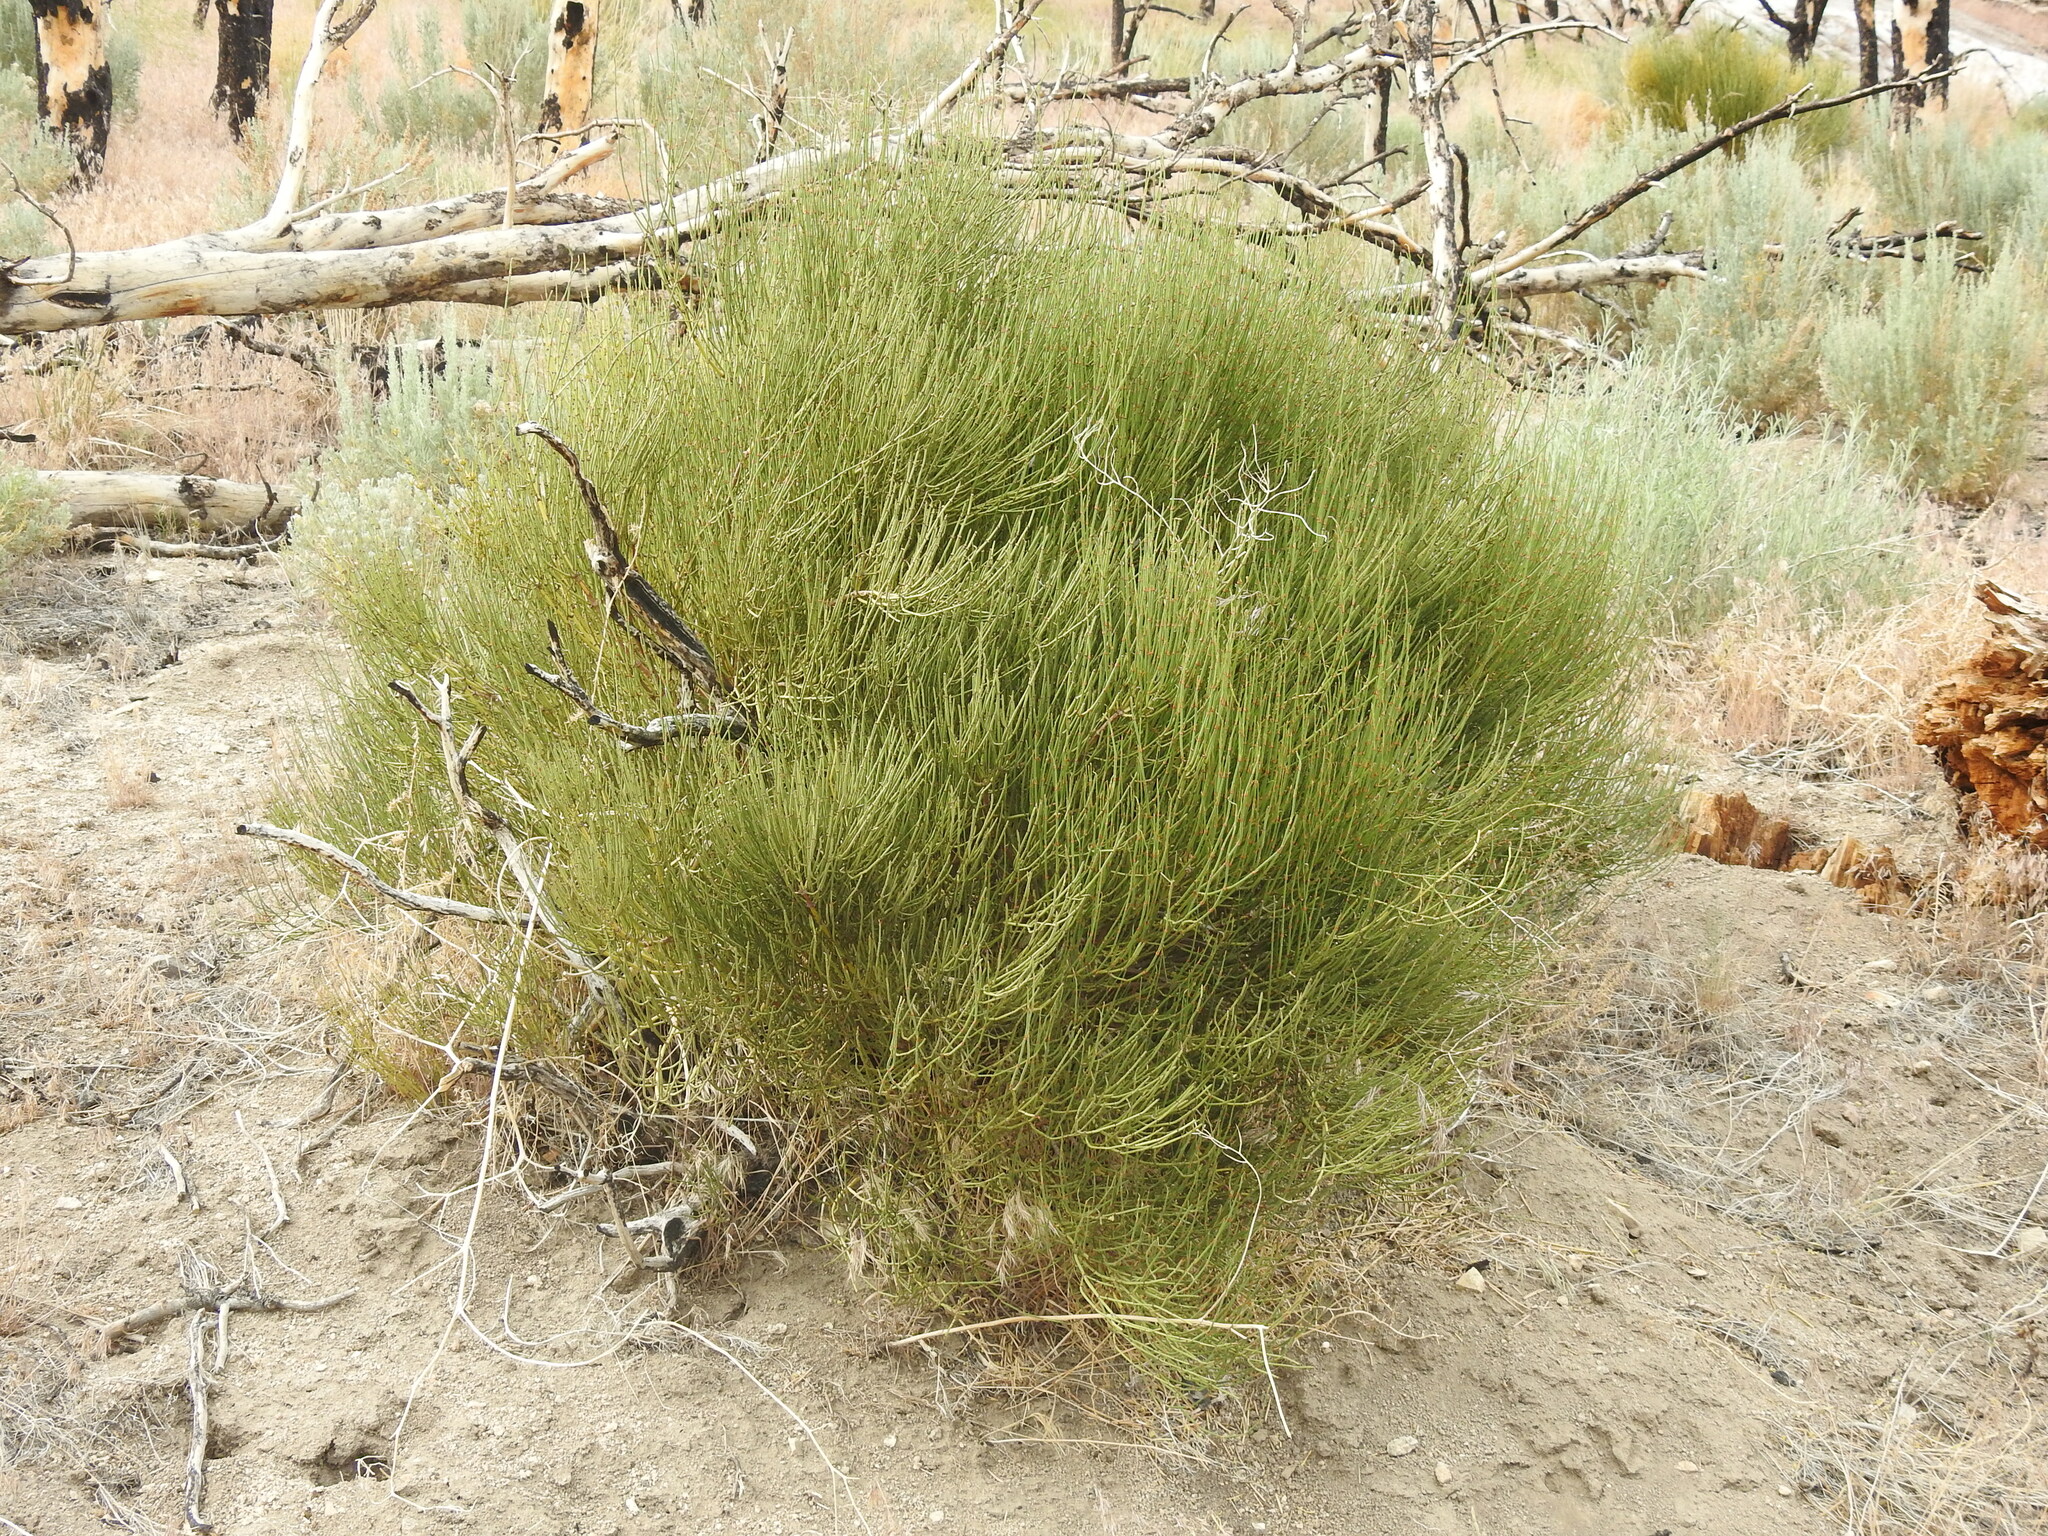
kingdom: Plantae
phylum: Tracheophyta
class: Gnetopsida
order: Ephedrales
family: Ephedraceae
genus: Ephedra
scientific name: Ephedra viridis
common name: Green ephedra
